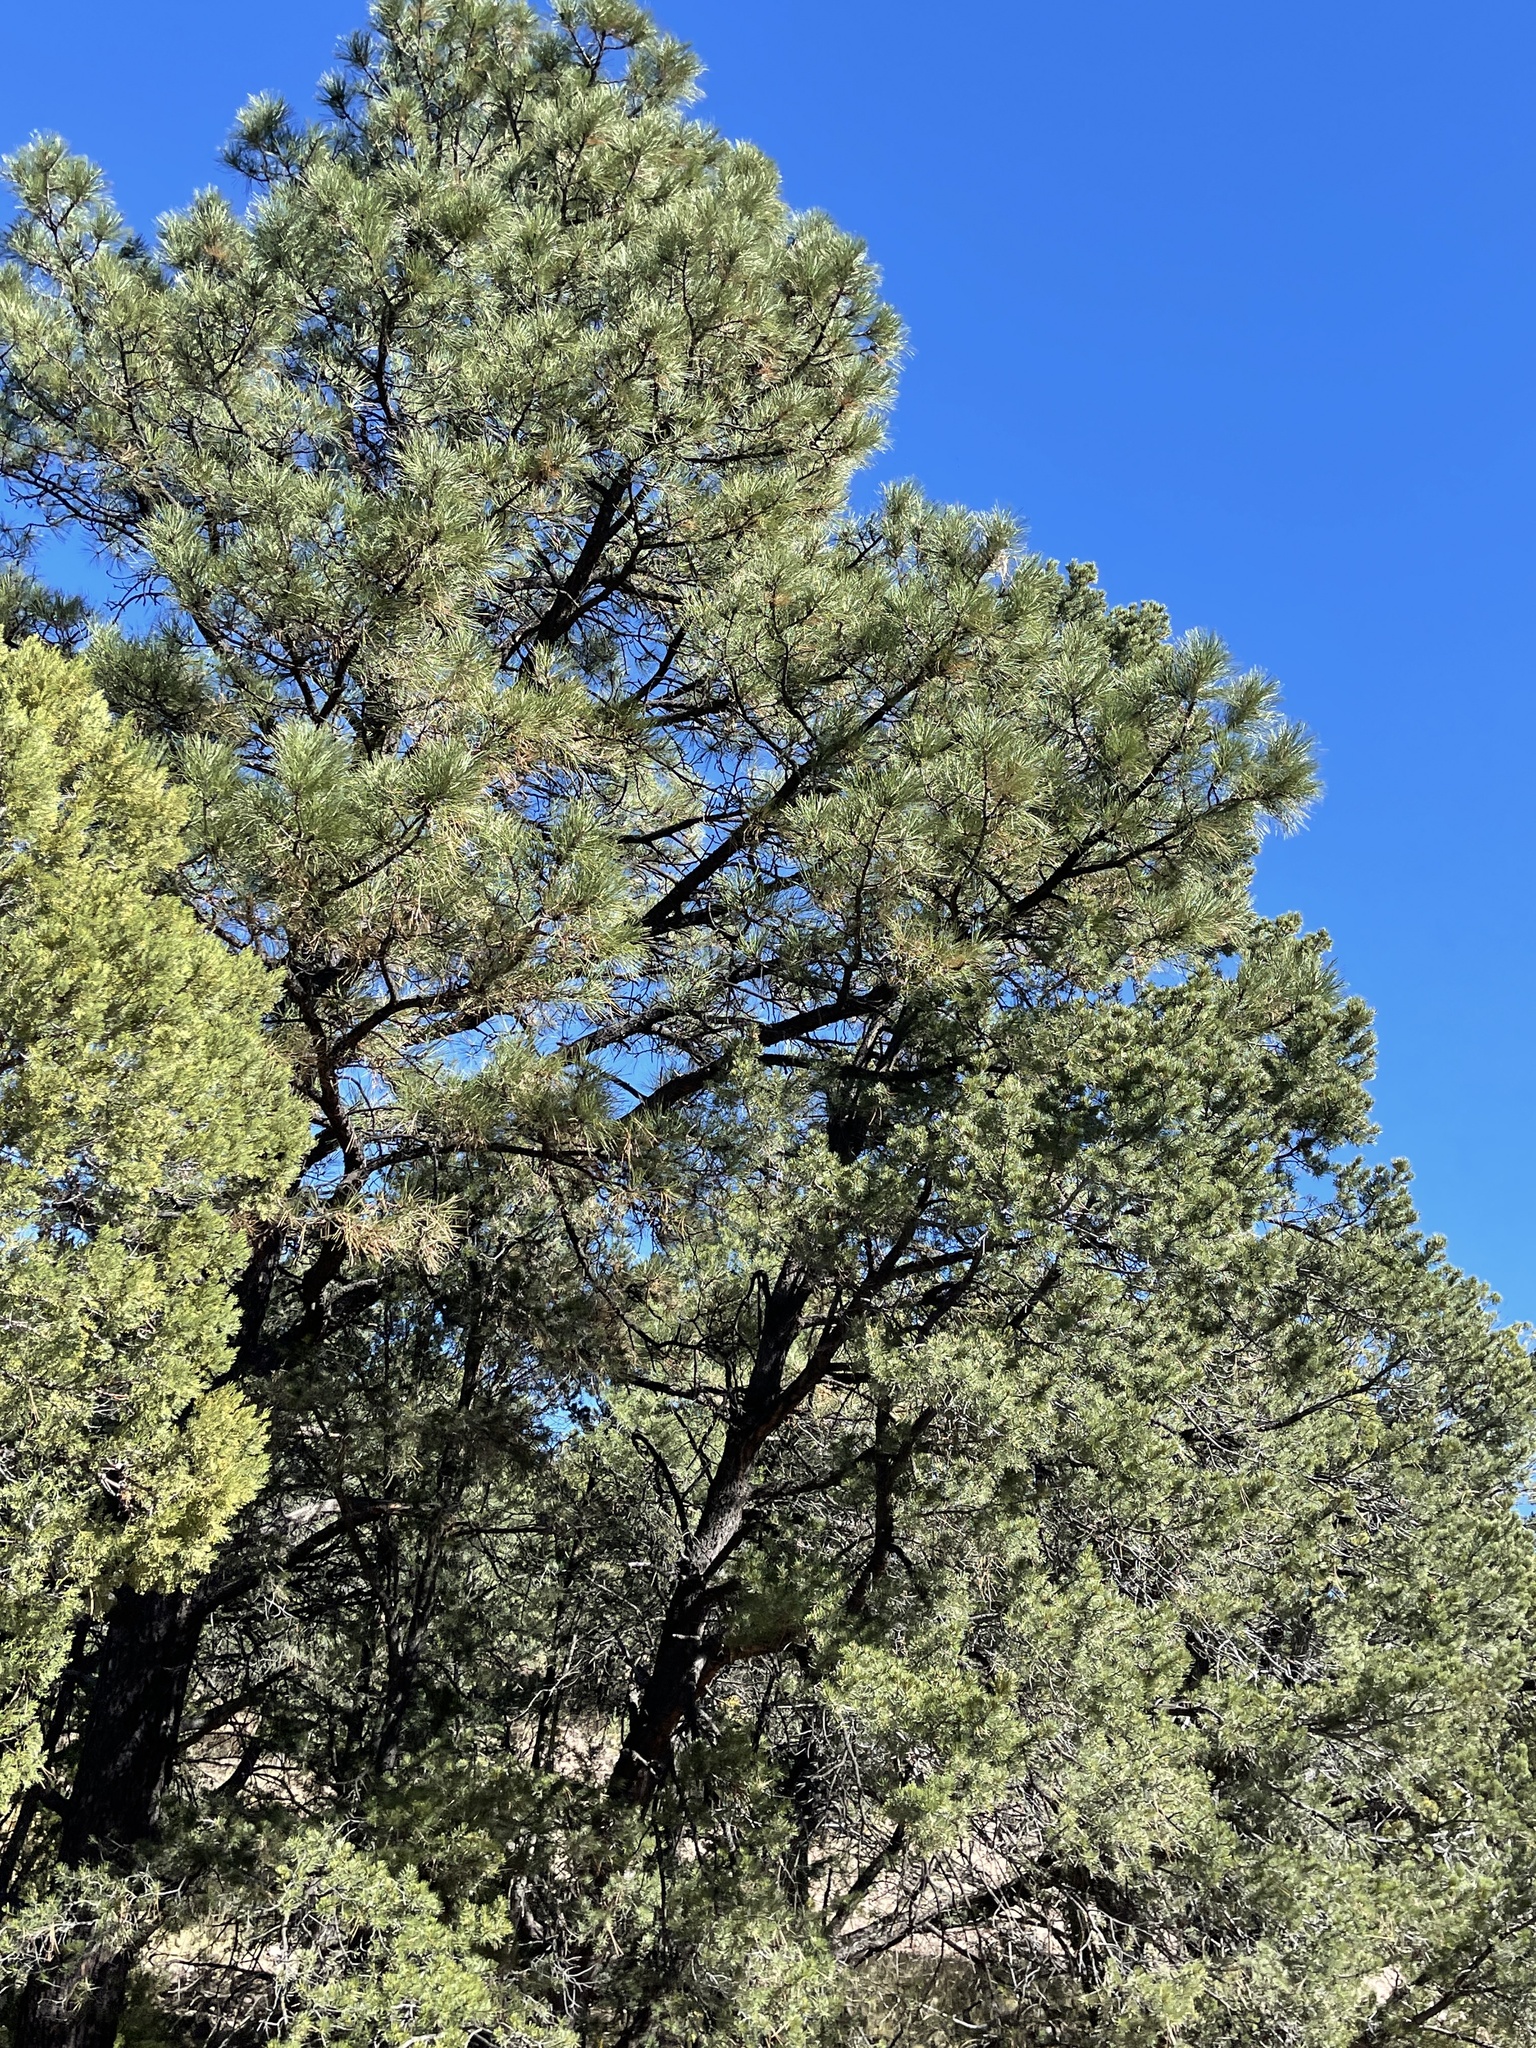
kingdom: Plantae
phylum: Tracheophyta
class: Pinopsida
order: Pinales
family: Pinaceae
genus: Pinus
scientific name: Pinus ponderosa
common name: Western yellow-pine
